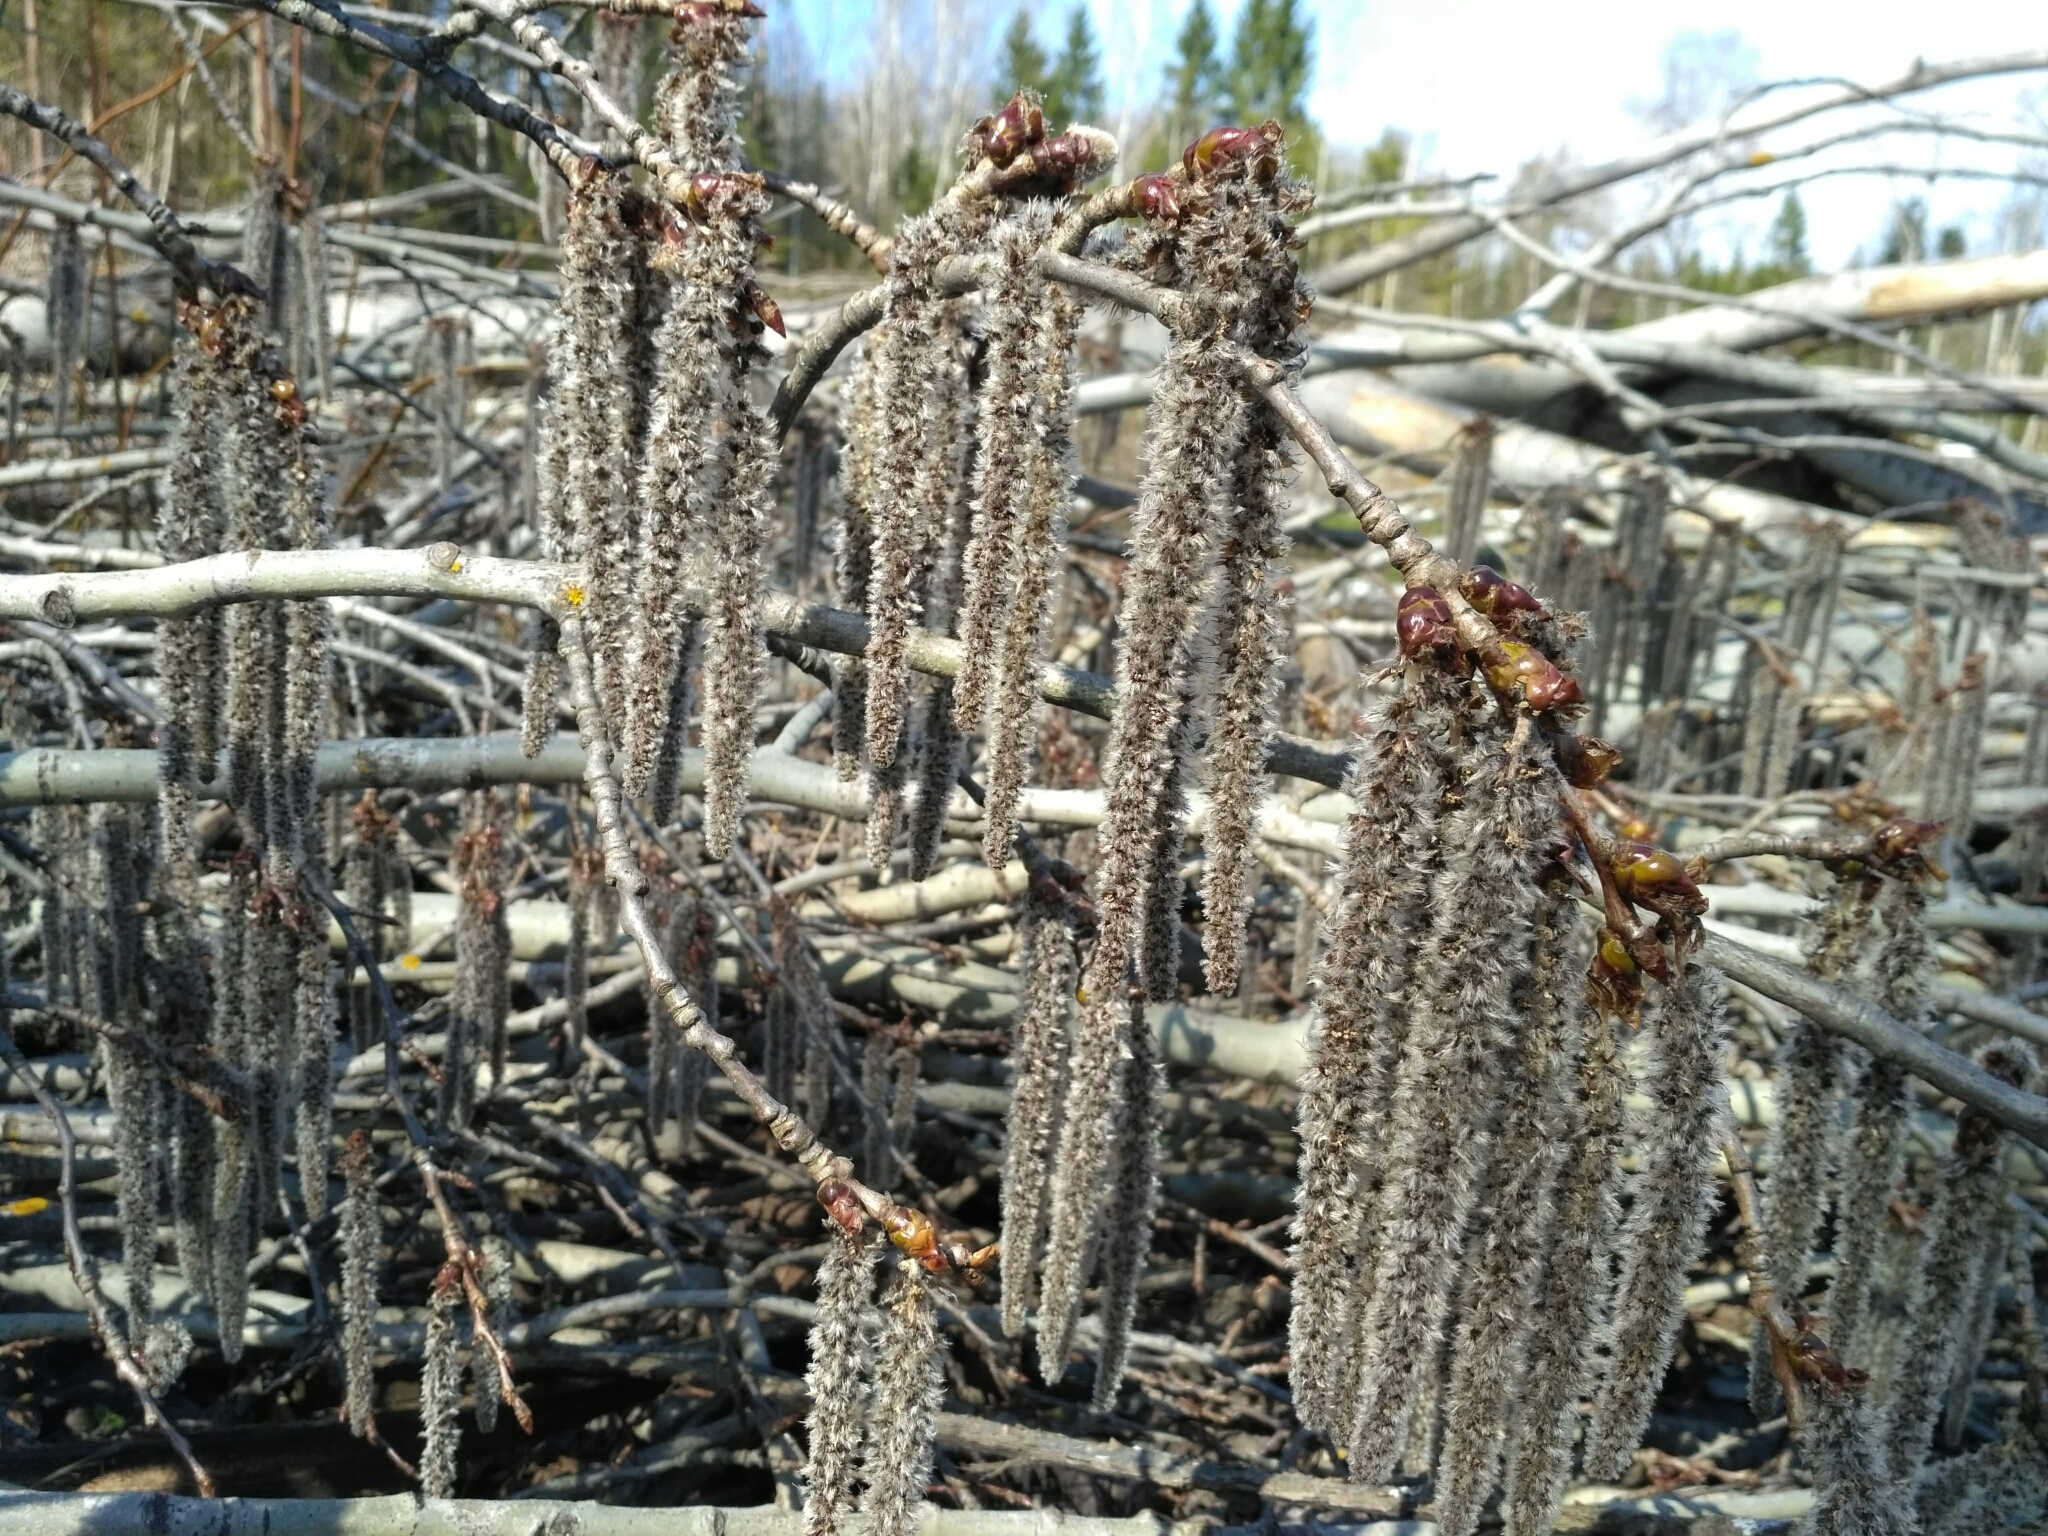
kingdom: Plantae
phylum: Tracheophyta
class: Magnoliopsida
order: Malpighiales
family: Salicaceae
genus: Populus
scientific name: Populus tremula
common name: European aspen
